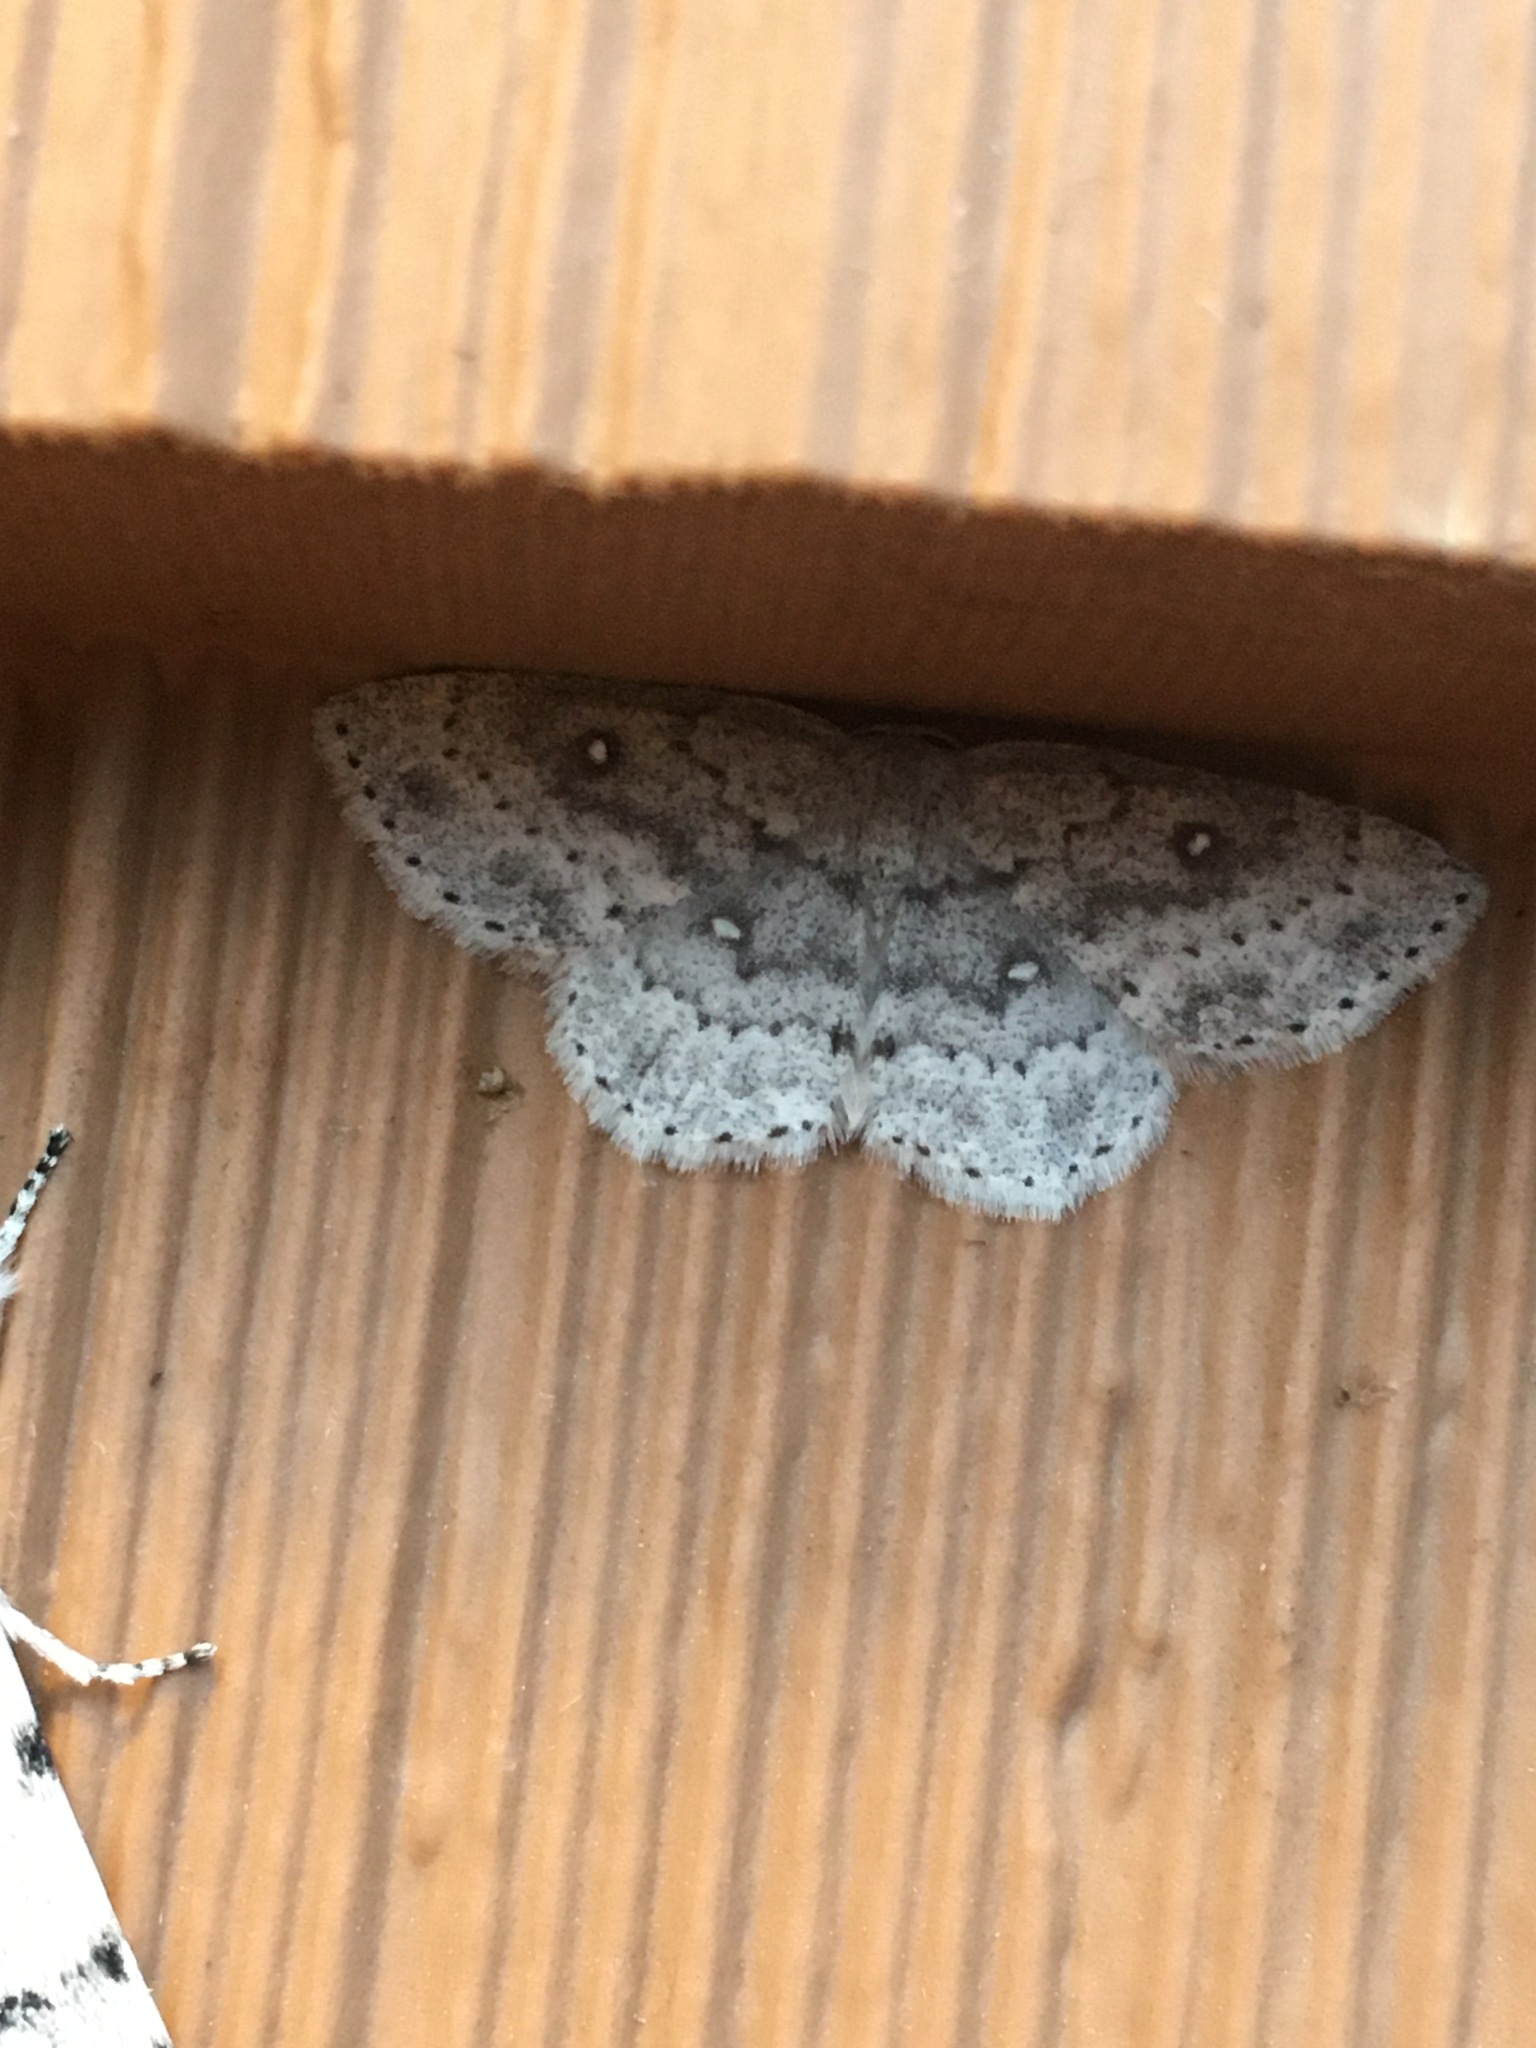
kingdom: Animalia
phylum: Arthropoda
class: Insecta
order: Lepidoptera
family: Geometridae
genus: Cyclophora
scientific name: Cyclophora pendulinaria
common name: Sweet fern geometer
